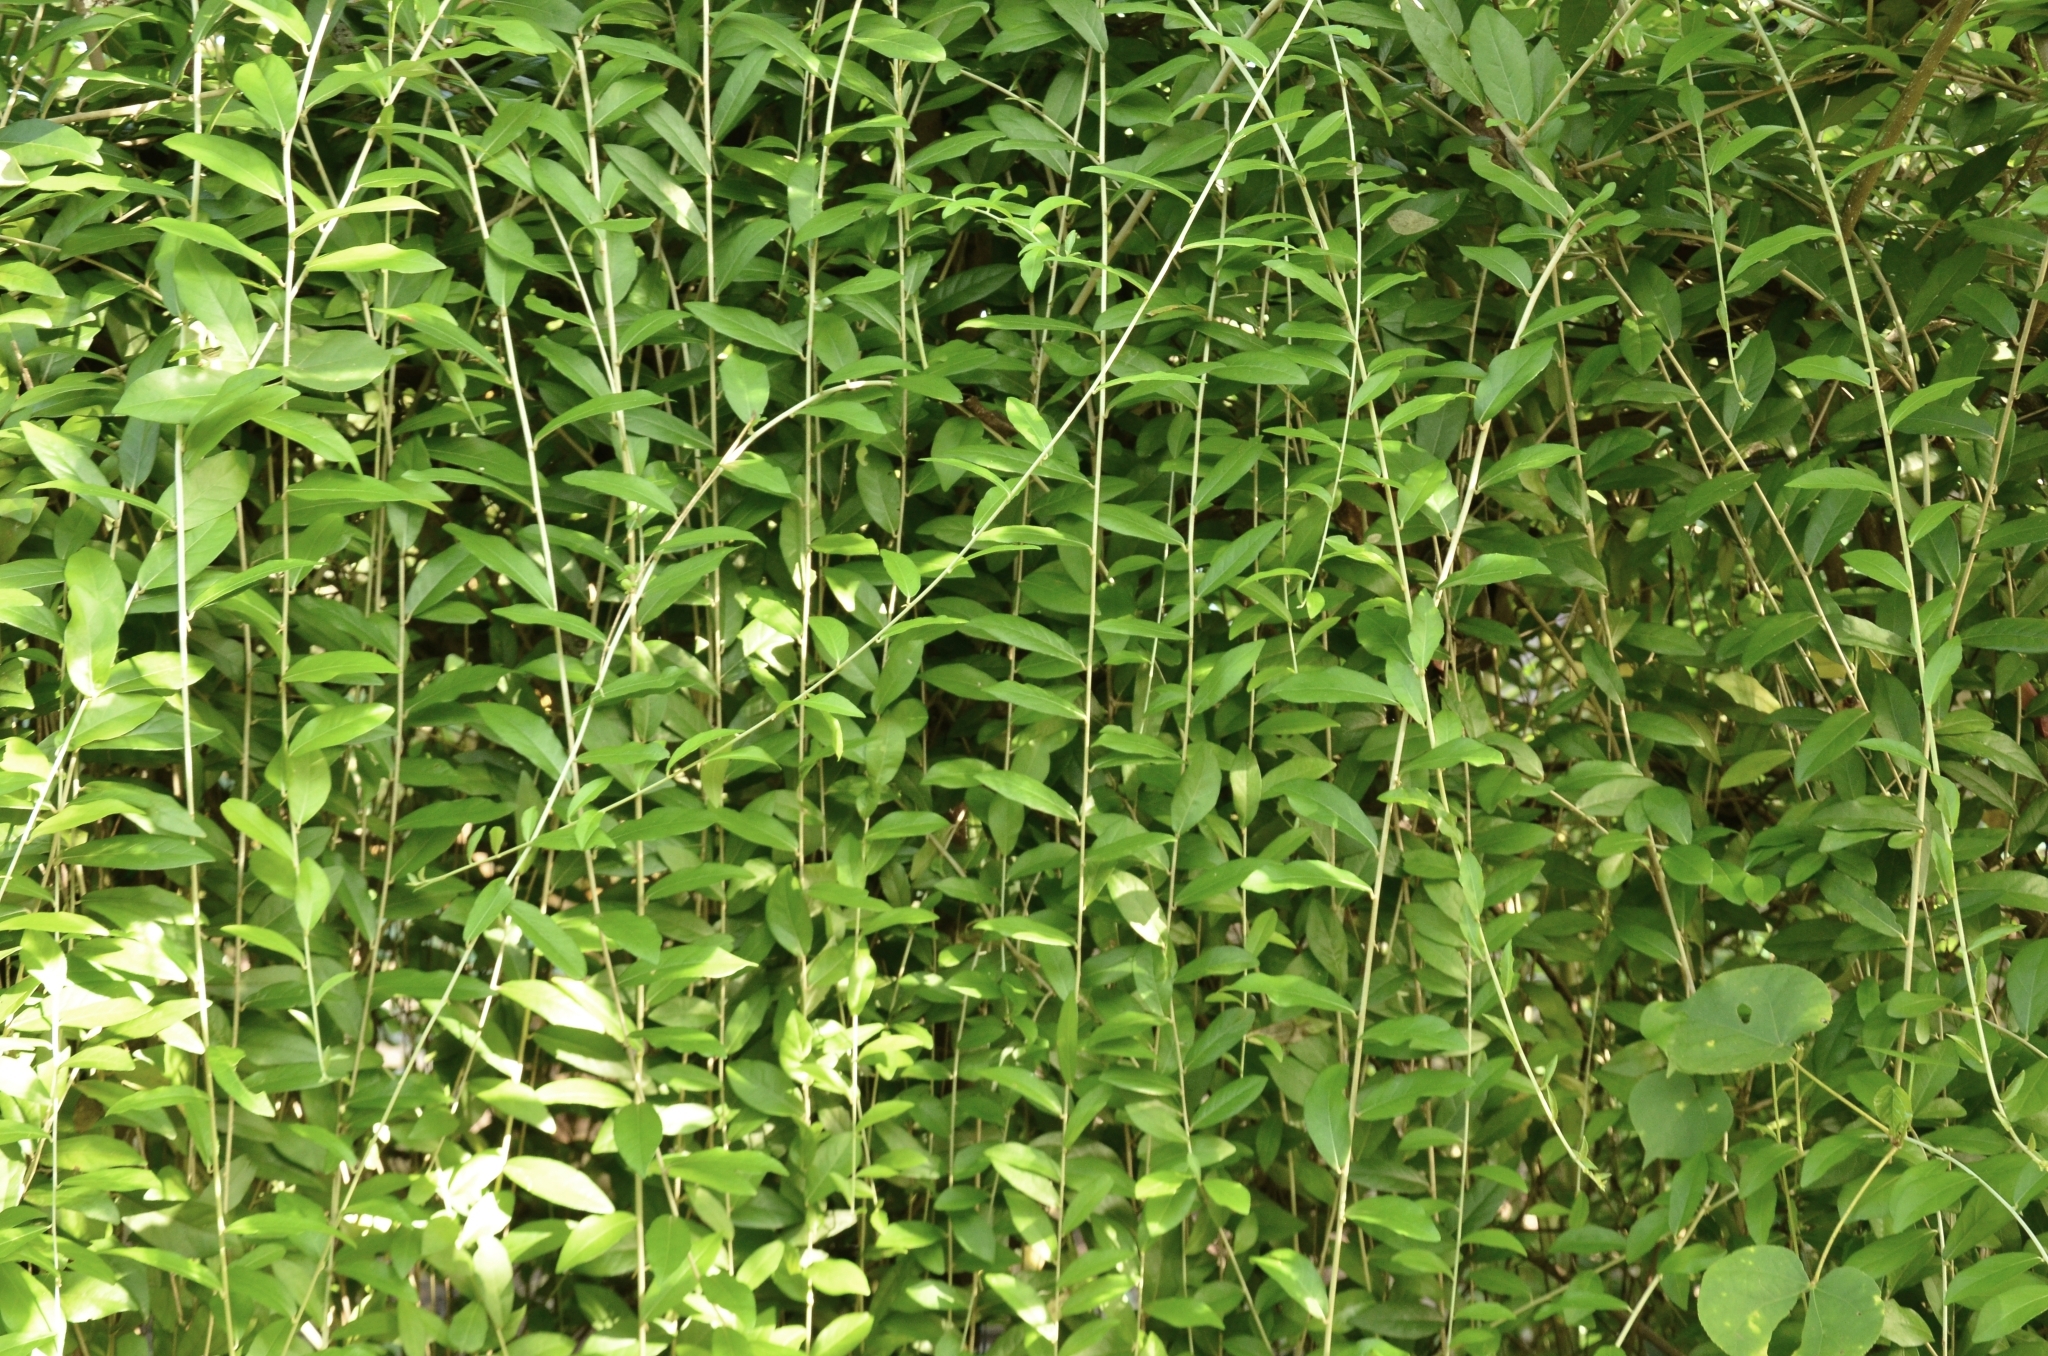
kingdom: Plantae
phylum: Tracheophyta
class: Magnoliopsida
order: Asterales
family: Asteraceae
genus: Tarlmounia
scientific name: Tarlmounia elliptica
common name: Kheua sa lot
